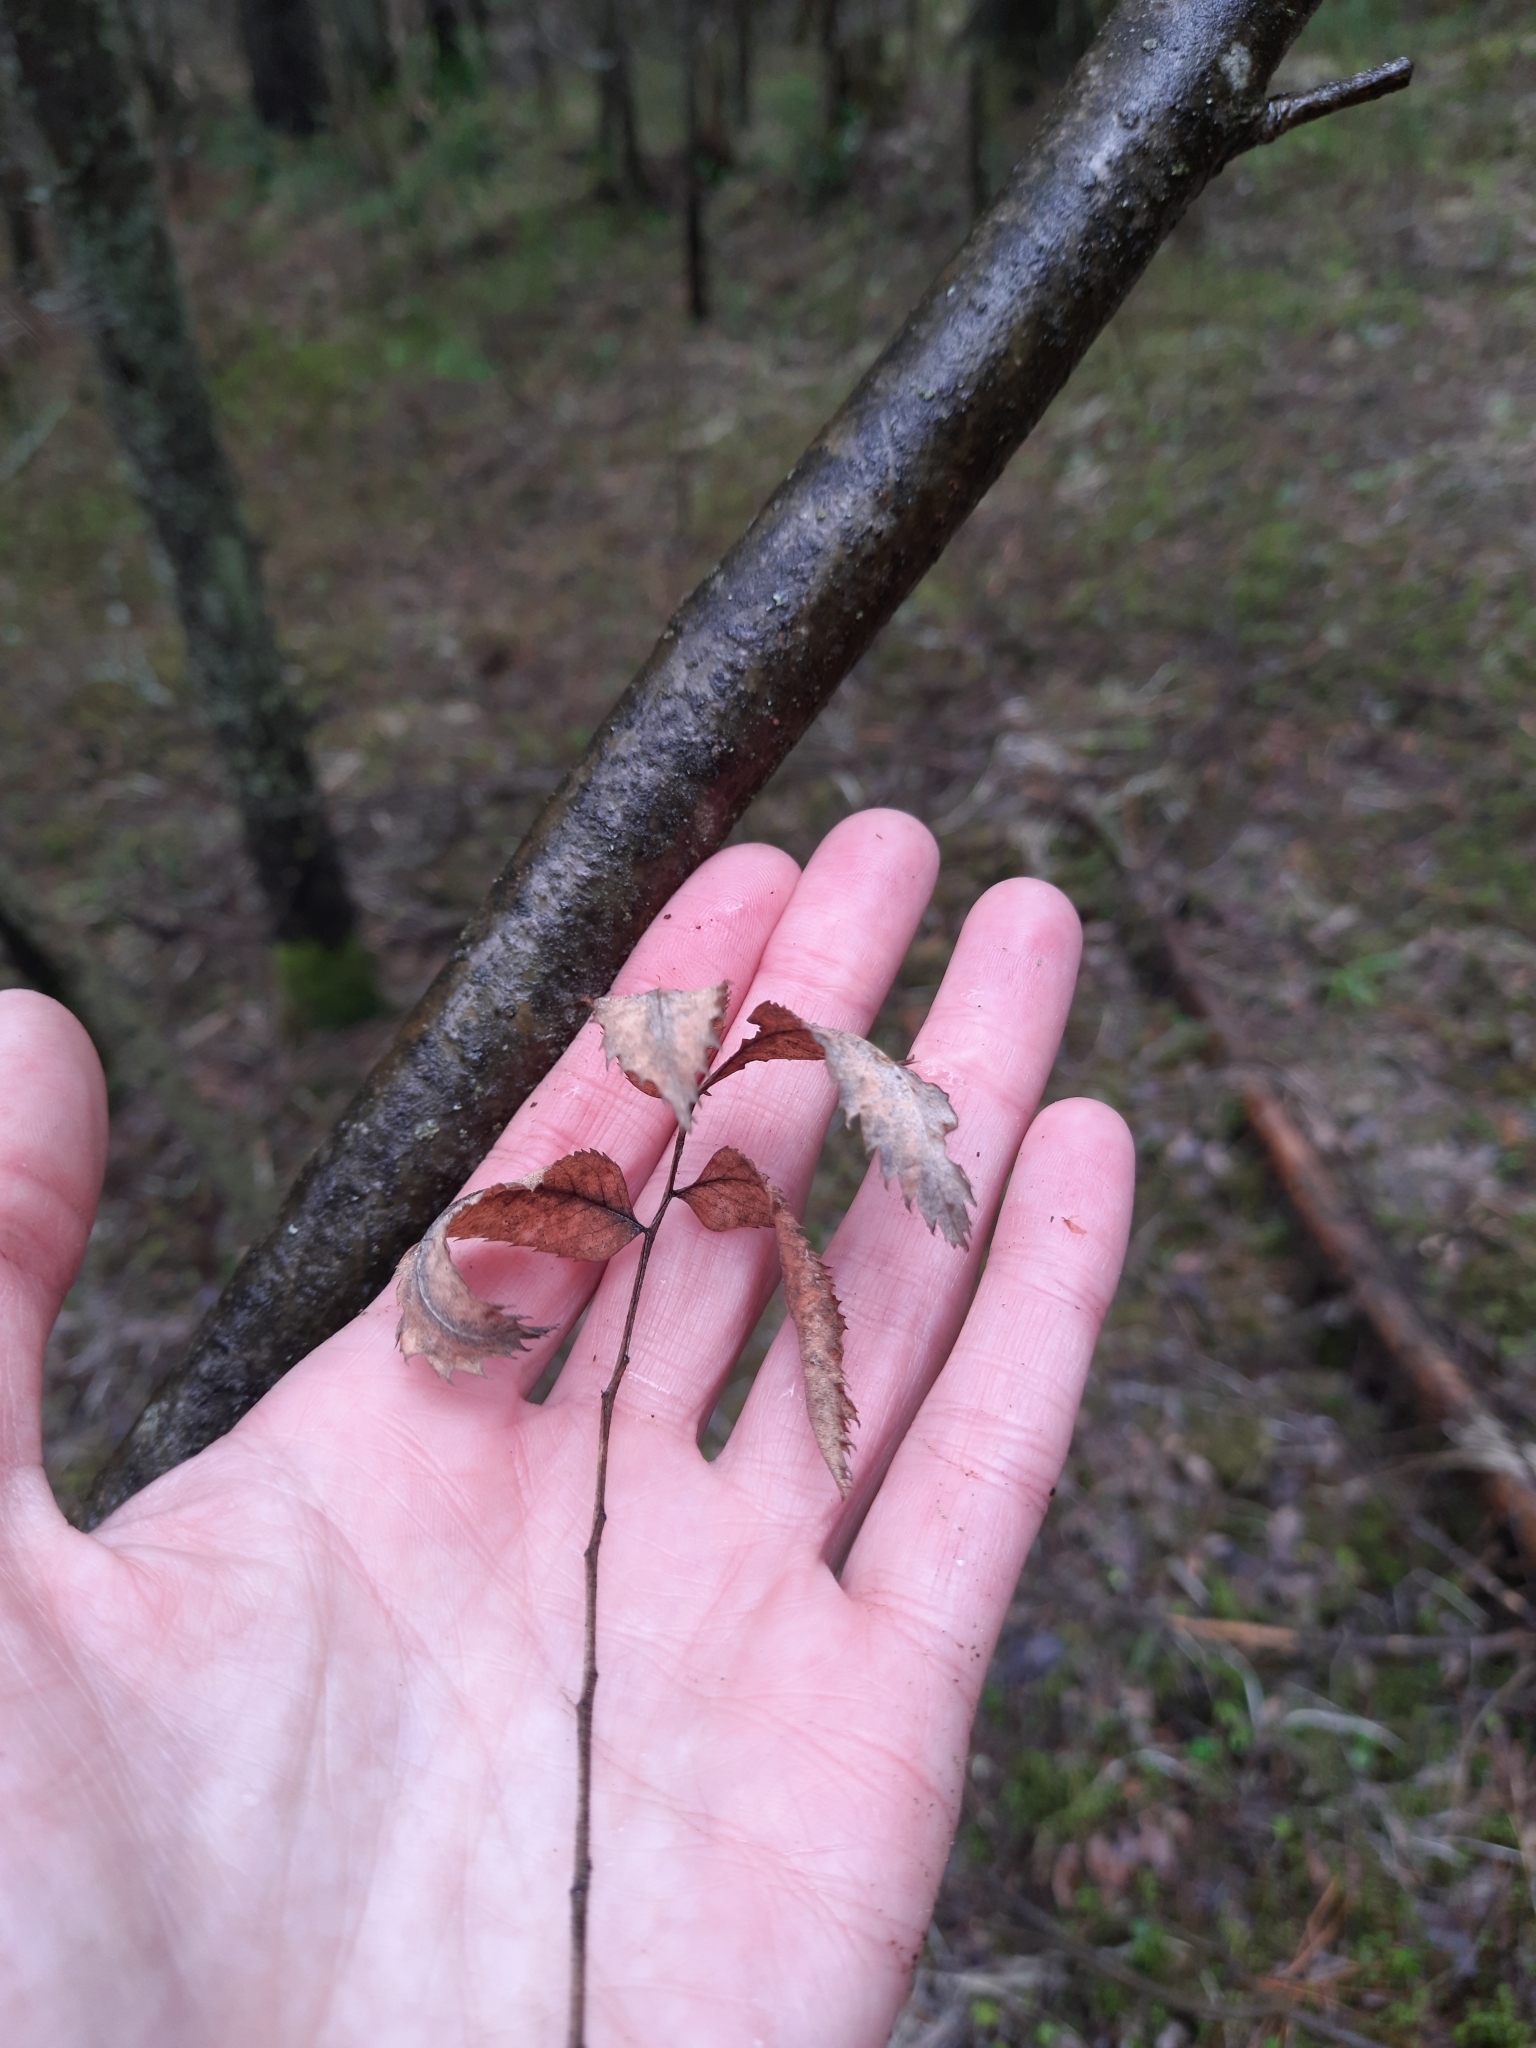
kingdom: Plantae
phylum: Tracheophyta
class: Magnoliopsida
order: Rosales
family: Rosaceae
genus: Sorbus
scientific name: Sorbus aucuparia
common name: Rowan
